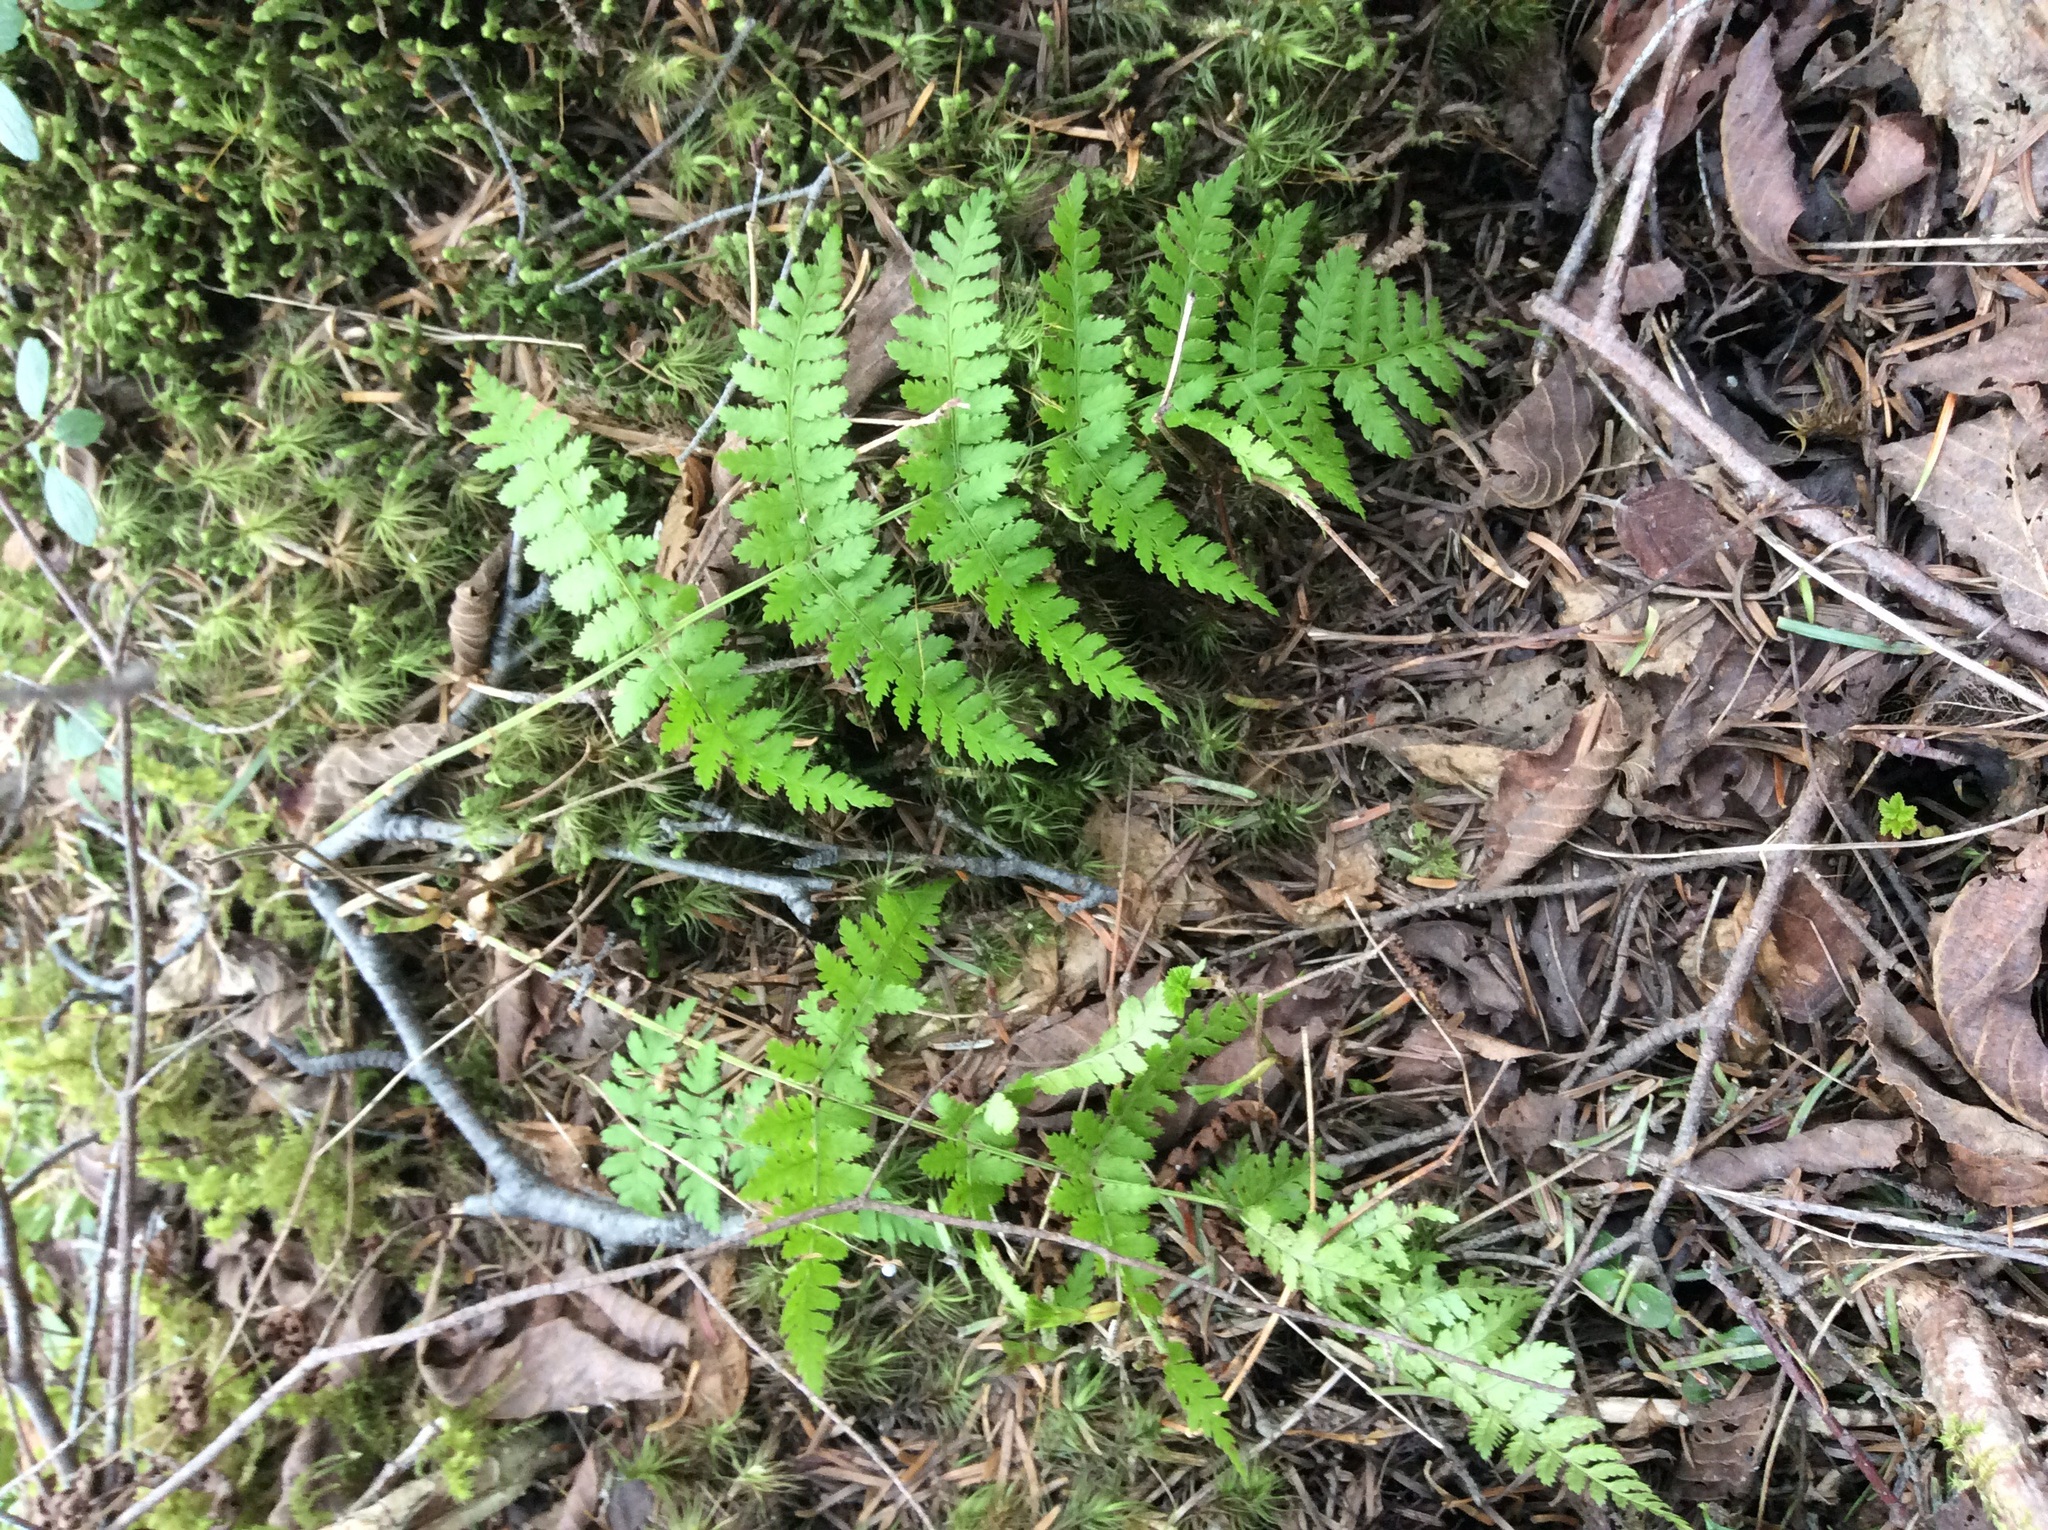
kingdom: Plantae
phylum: Tracheophyta
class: Polypodiopsida
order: Polypodiales
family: Dryopteridaceae
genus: Dryopteris
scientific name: Dryopteris intermedia
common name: Evergreen wood fern
